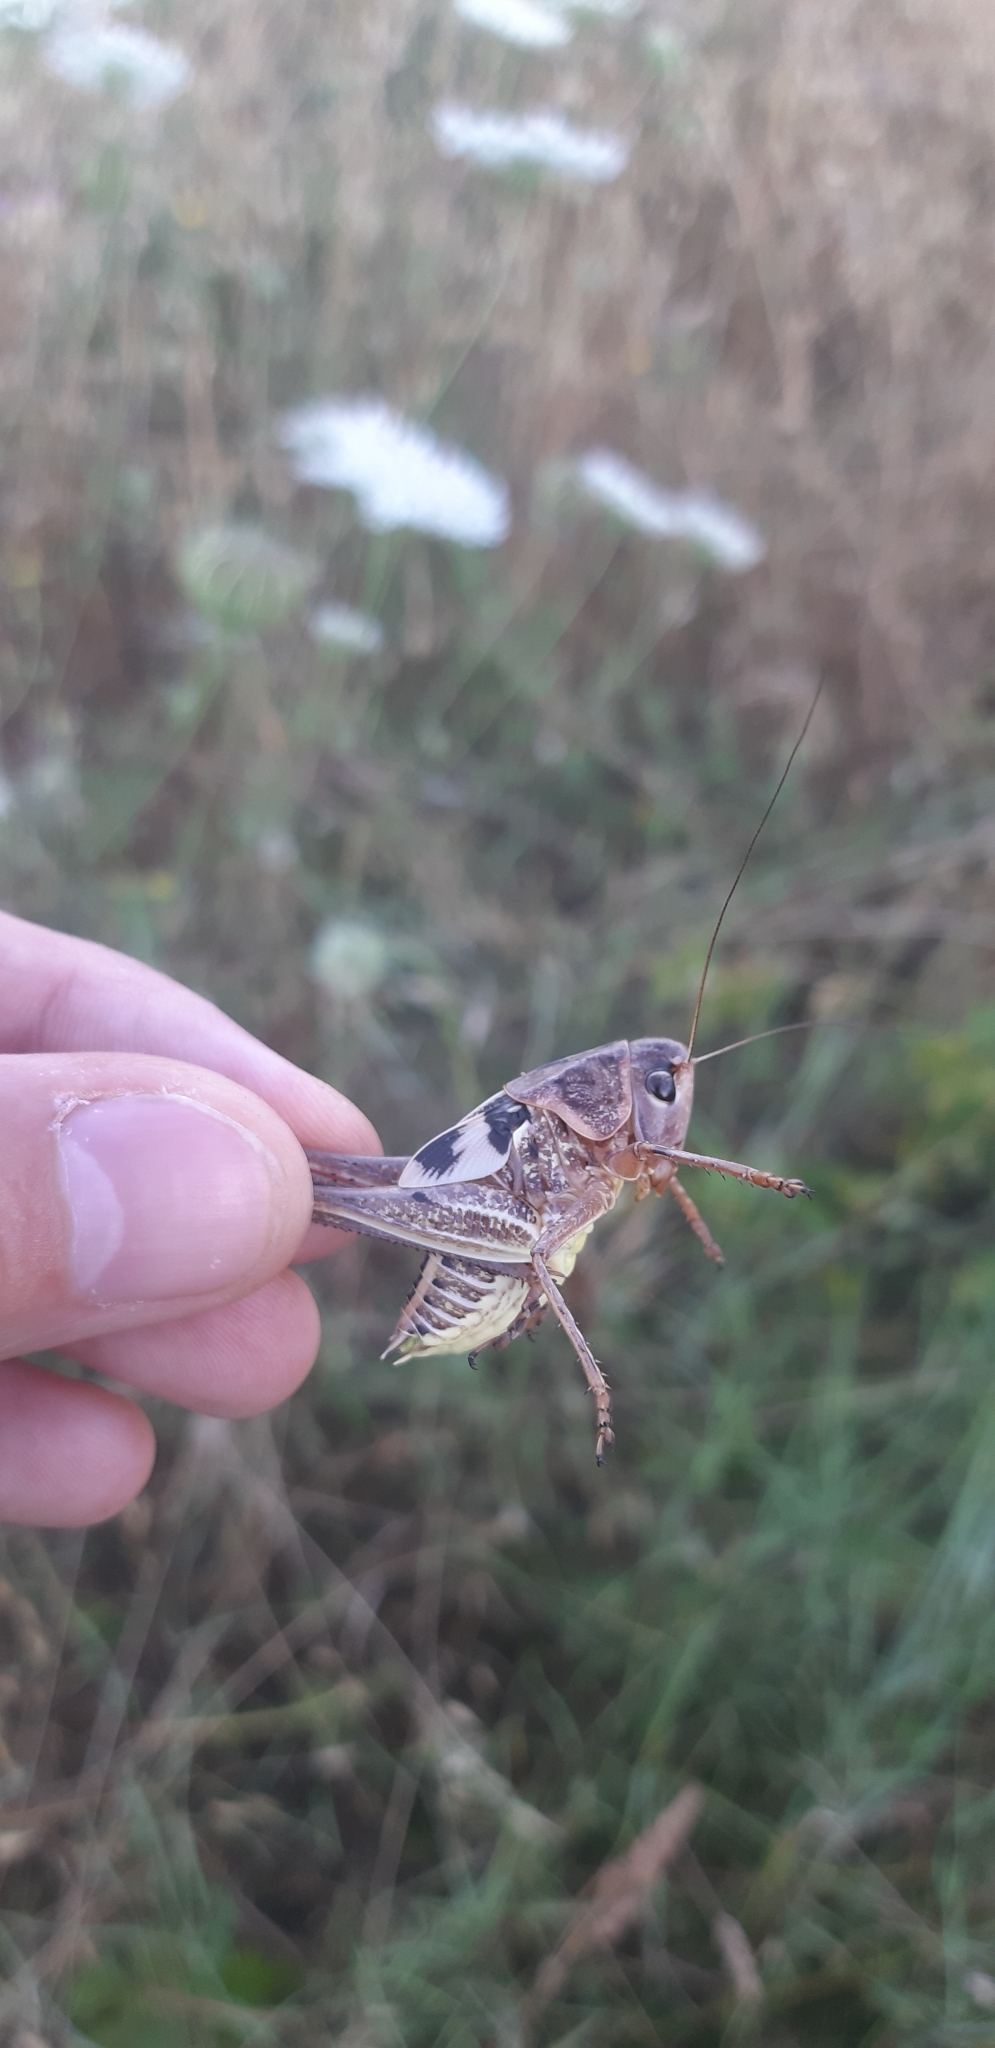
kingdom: Animalia
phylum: Arthropoda
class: Insecta
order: Orthoptera
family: Tettigoniidae
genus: Decticus
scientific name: Decticus albifrons
